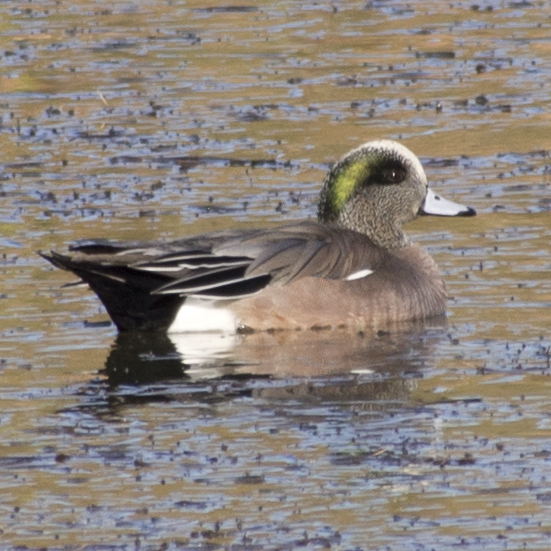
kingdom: Animalia
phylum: Chordata
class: Aves
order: Anseriformes
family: Anatidae
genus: Mareca
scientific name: Mareca americana
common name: American wigeon
